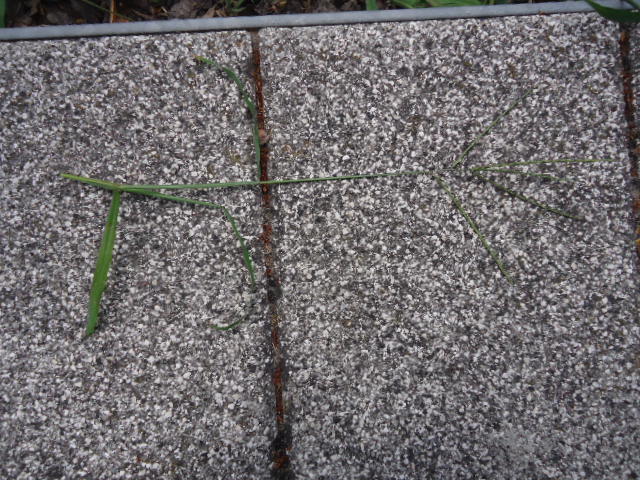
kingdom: Plantae
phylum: Tracheophyta
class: Liliopsida
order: Poales
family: Poaceae
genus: Digitaria
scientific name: Digitaria sanguinalis
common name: Hairy crabgrass
